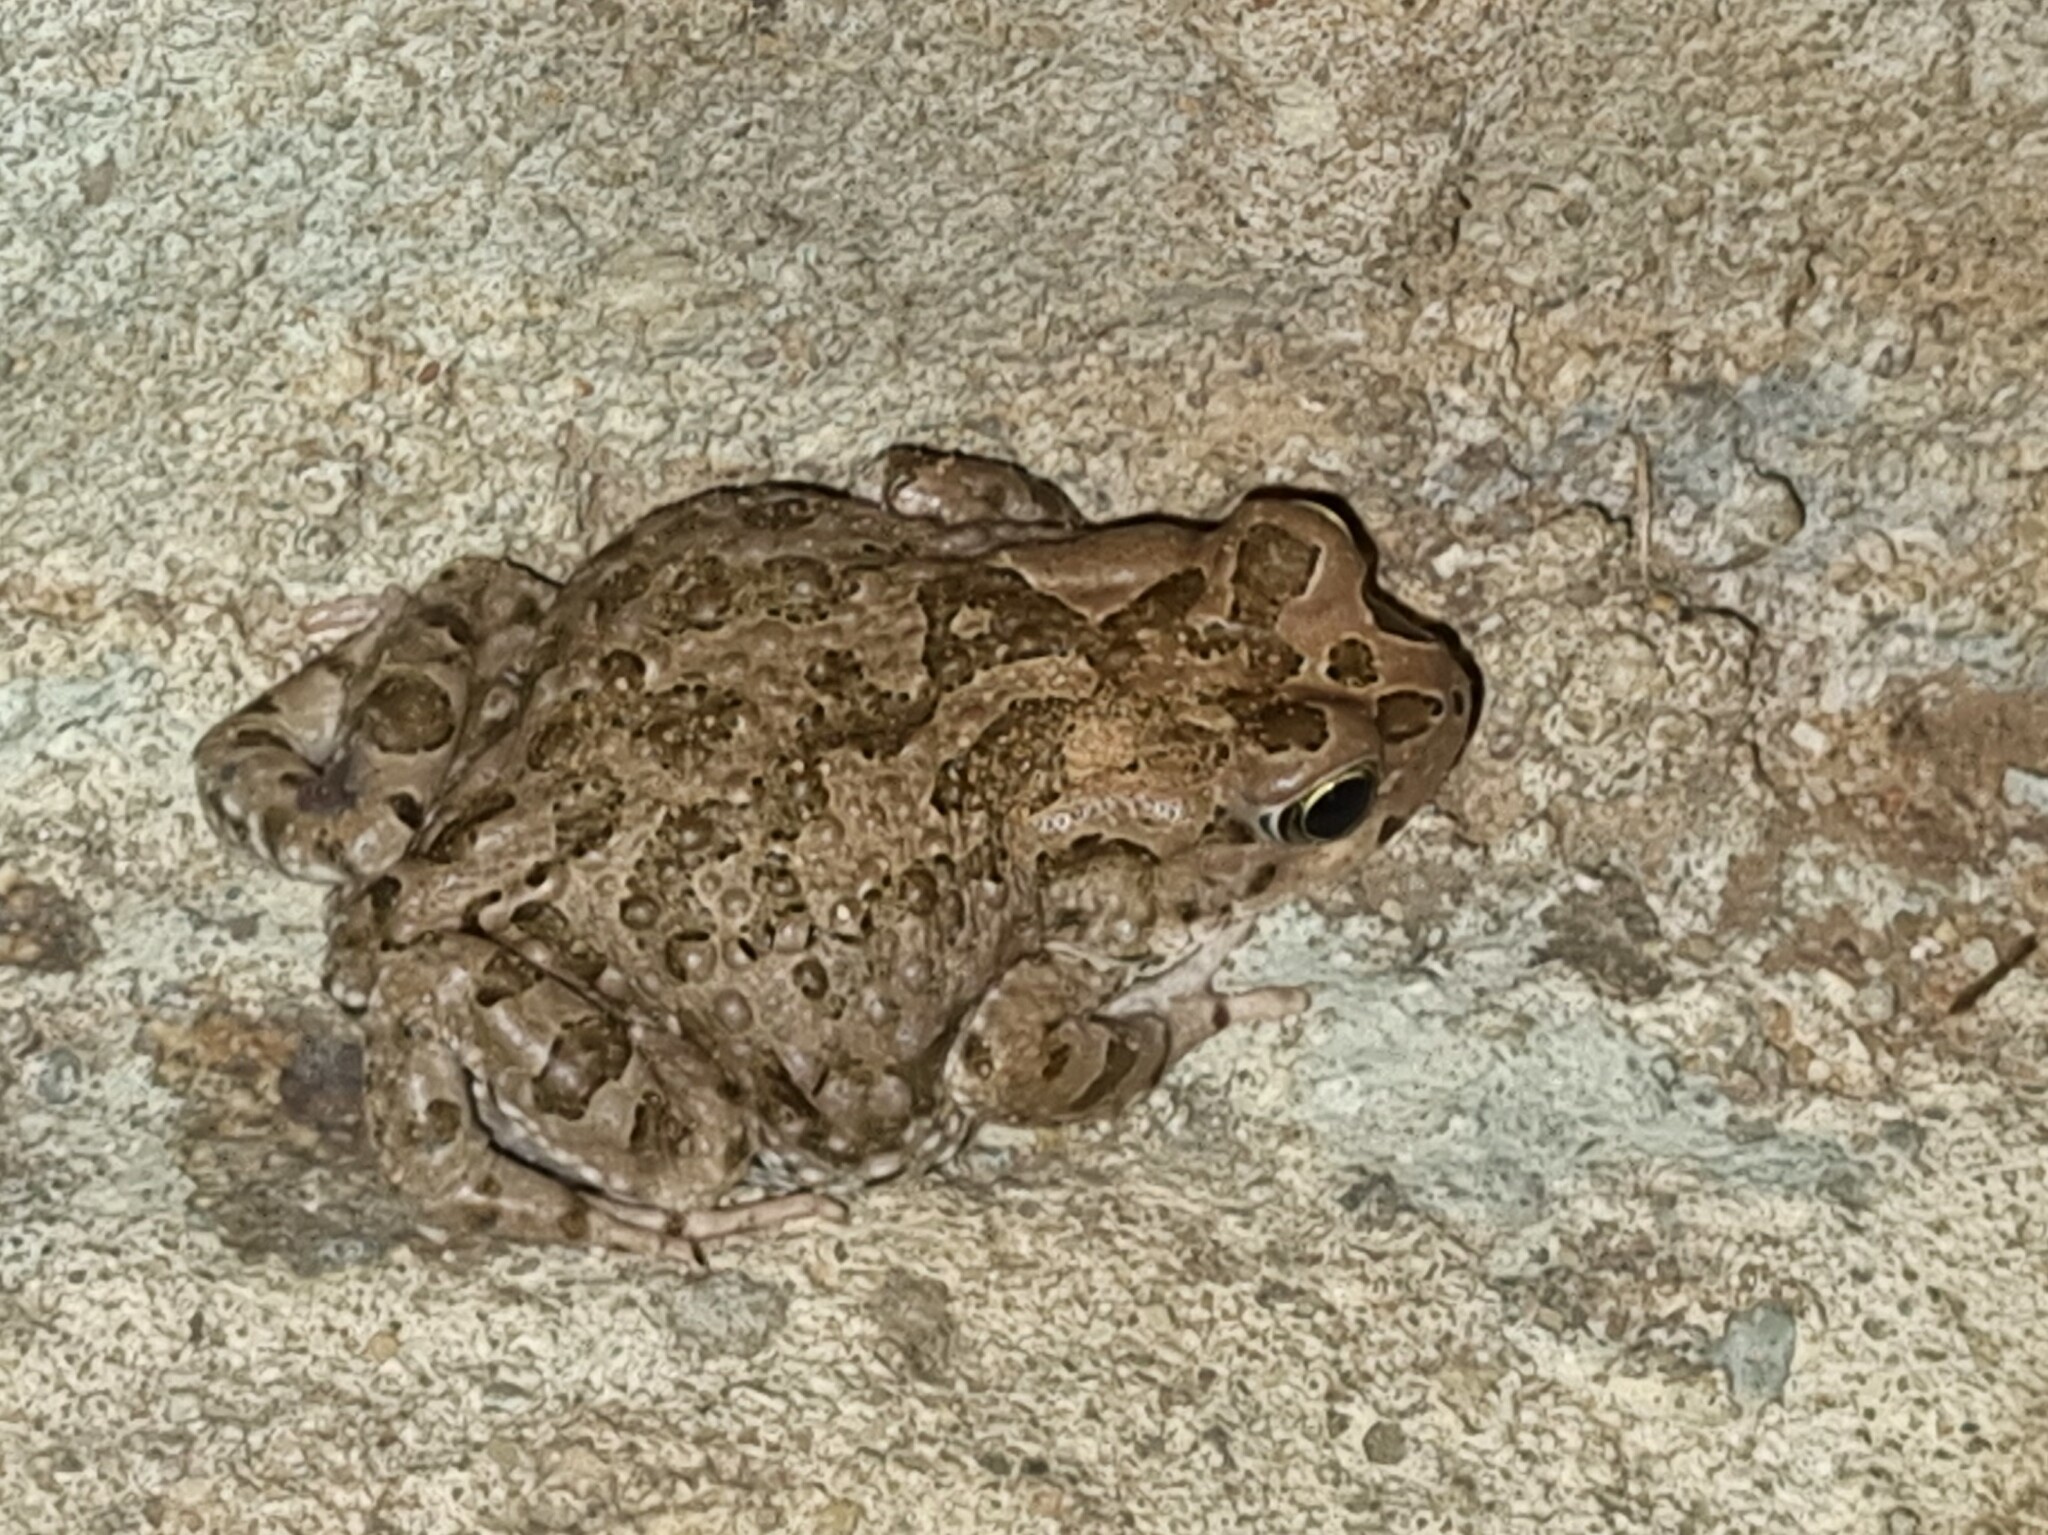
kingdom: Animalia
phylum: Chordata
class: Amphibia
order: Anura
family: Bufonidae
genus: Vandijkophrynus
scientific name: Vandijkophrynus gariepensis
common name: Gariep toad
